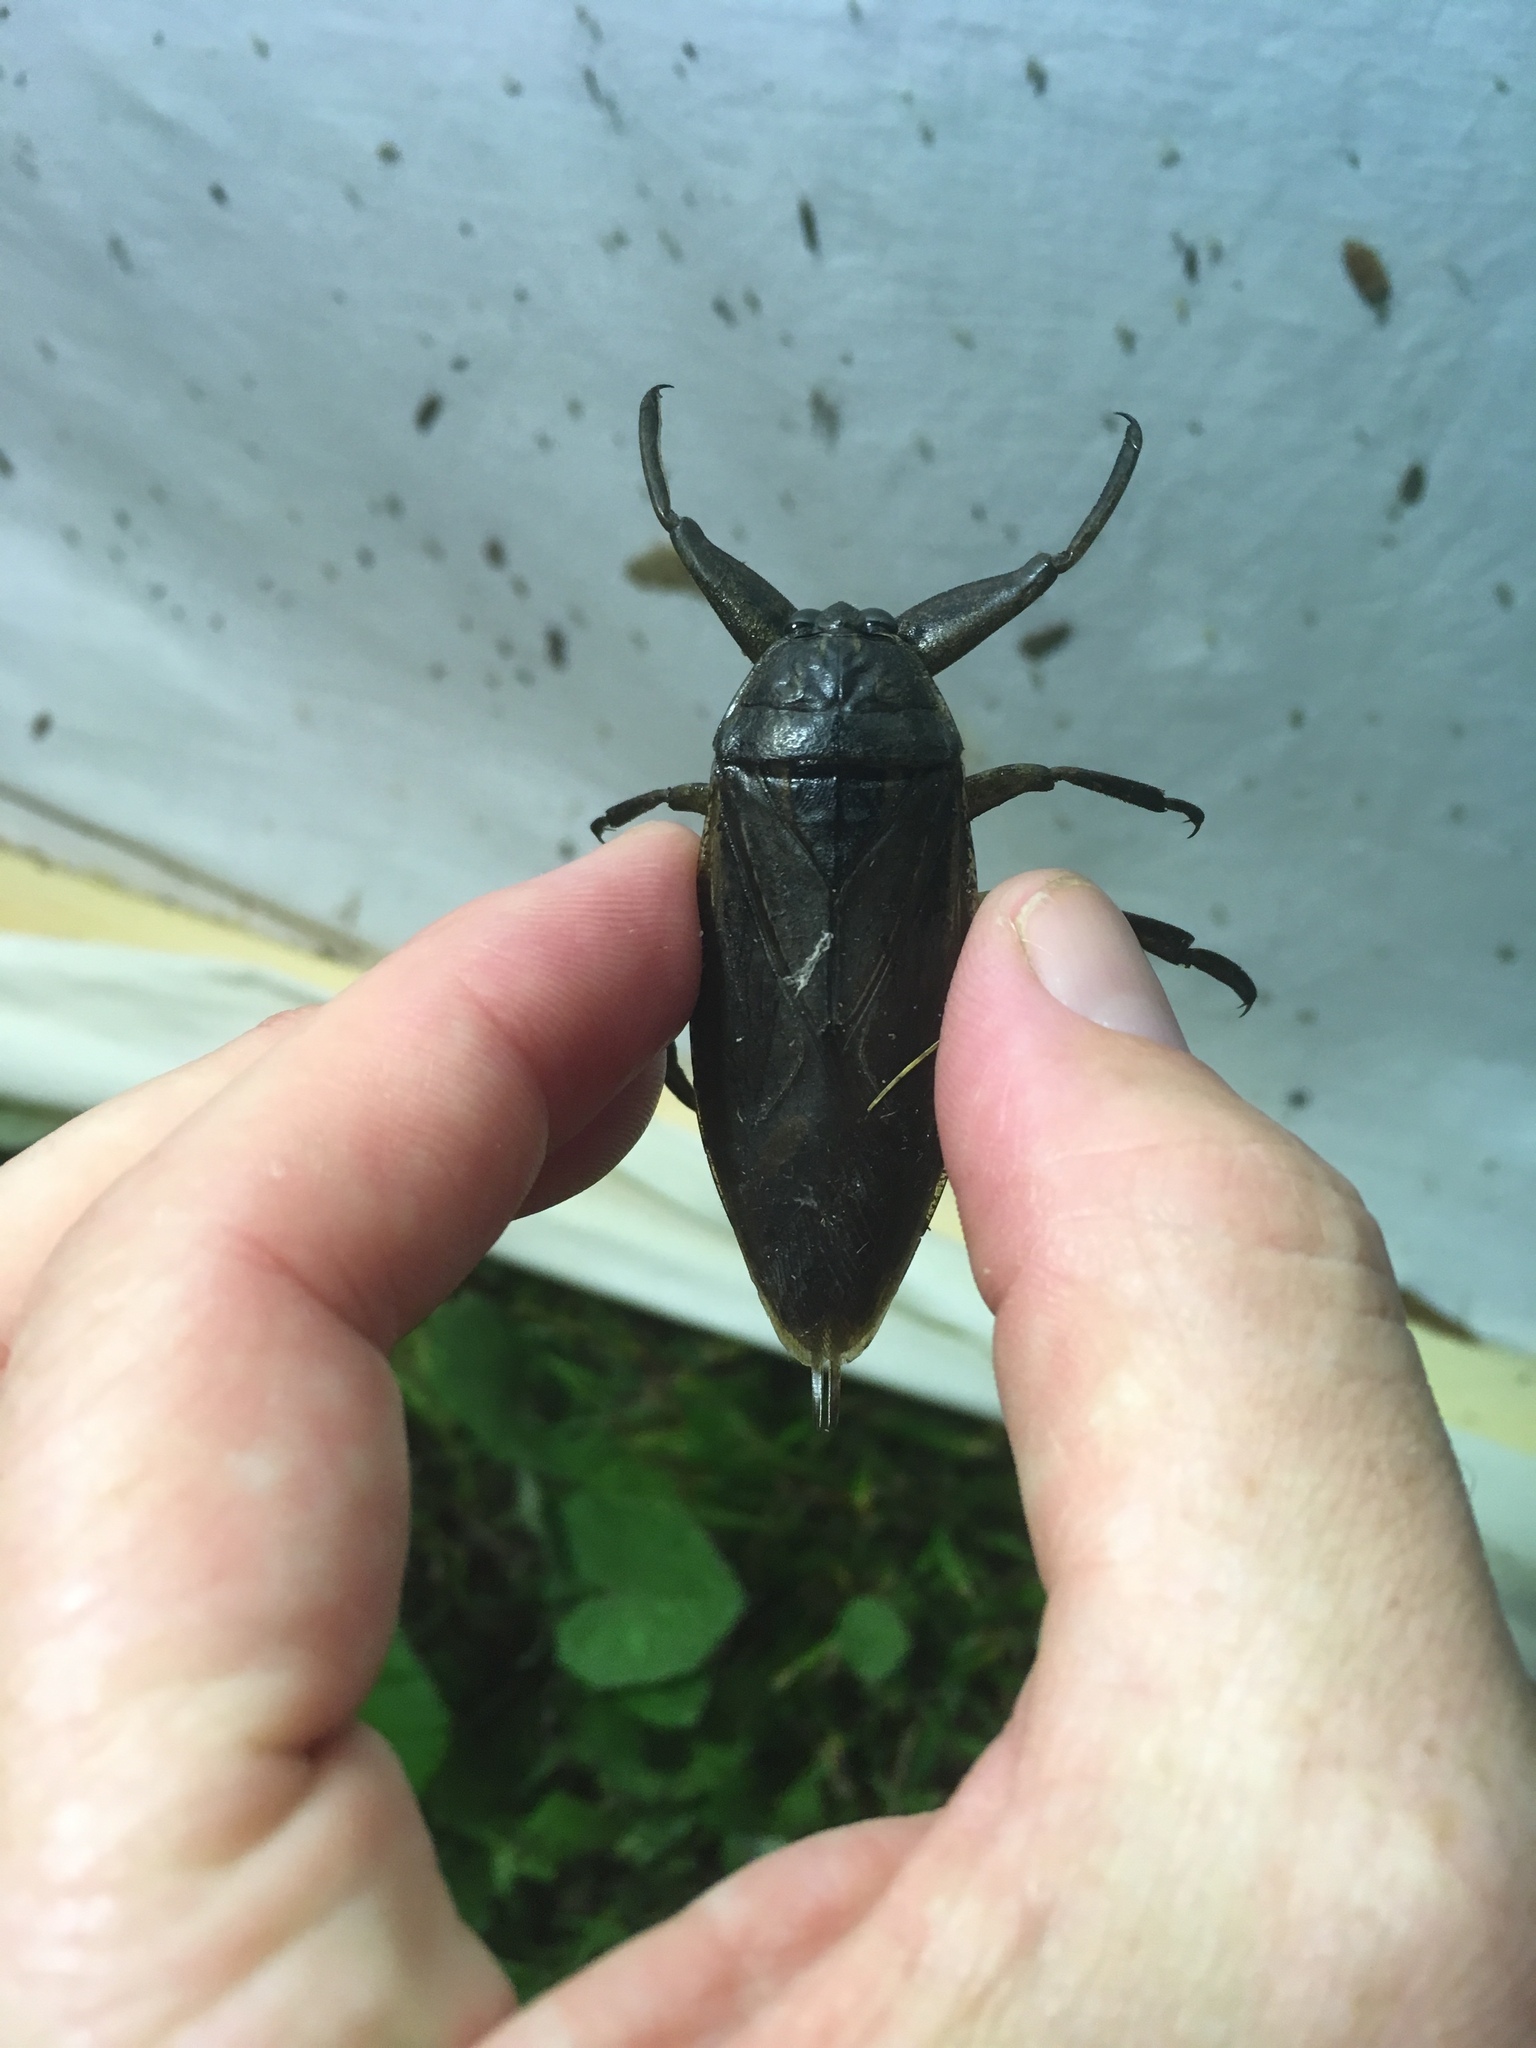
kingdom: Animalia
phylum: Arthropoda
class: Insecta
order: Hemiptera
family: Belostomatidae
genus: Lethocerus
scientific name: Lethocerus americanus
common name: Giant water bug
